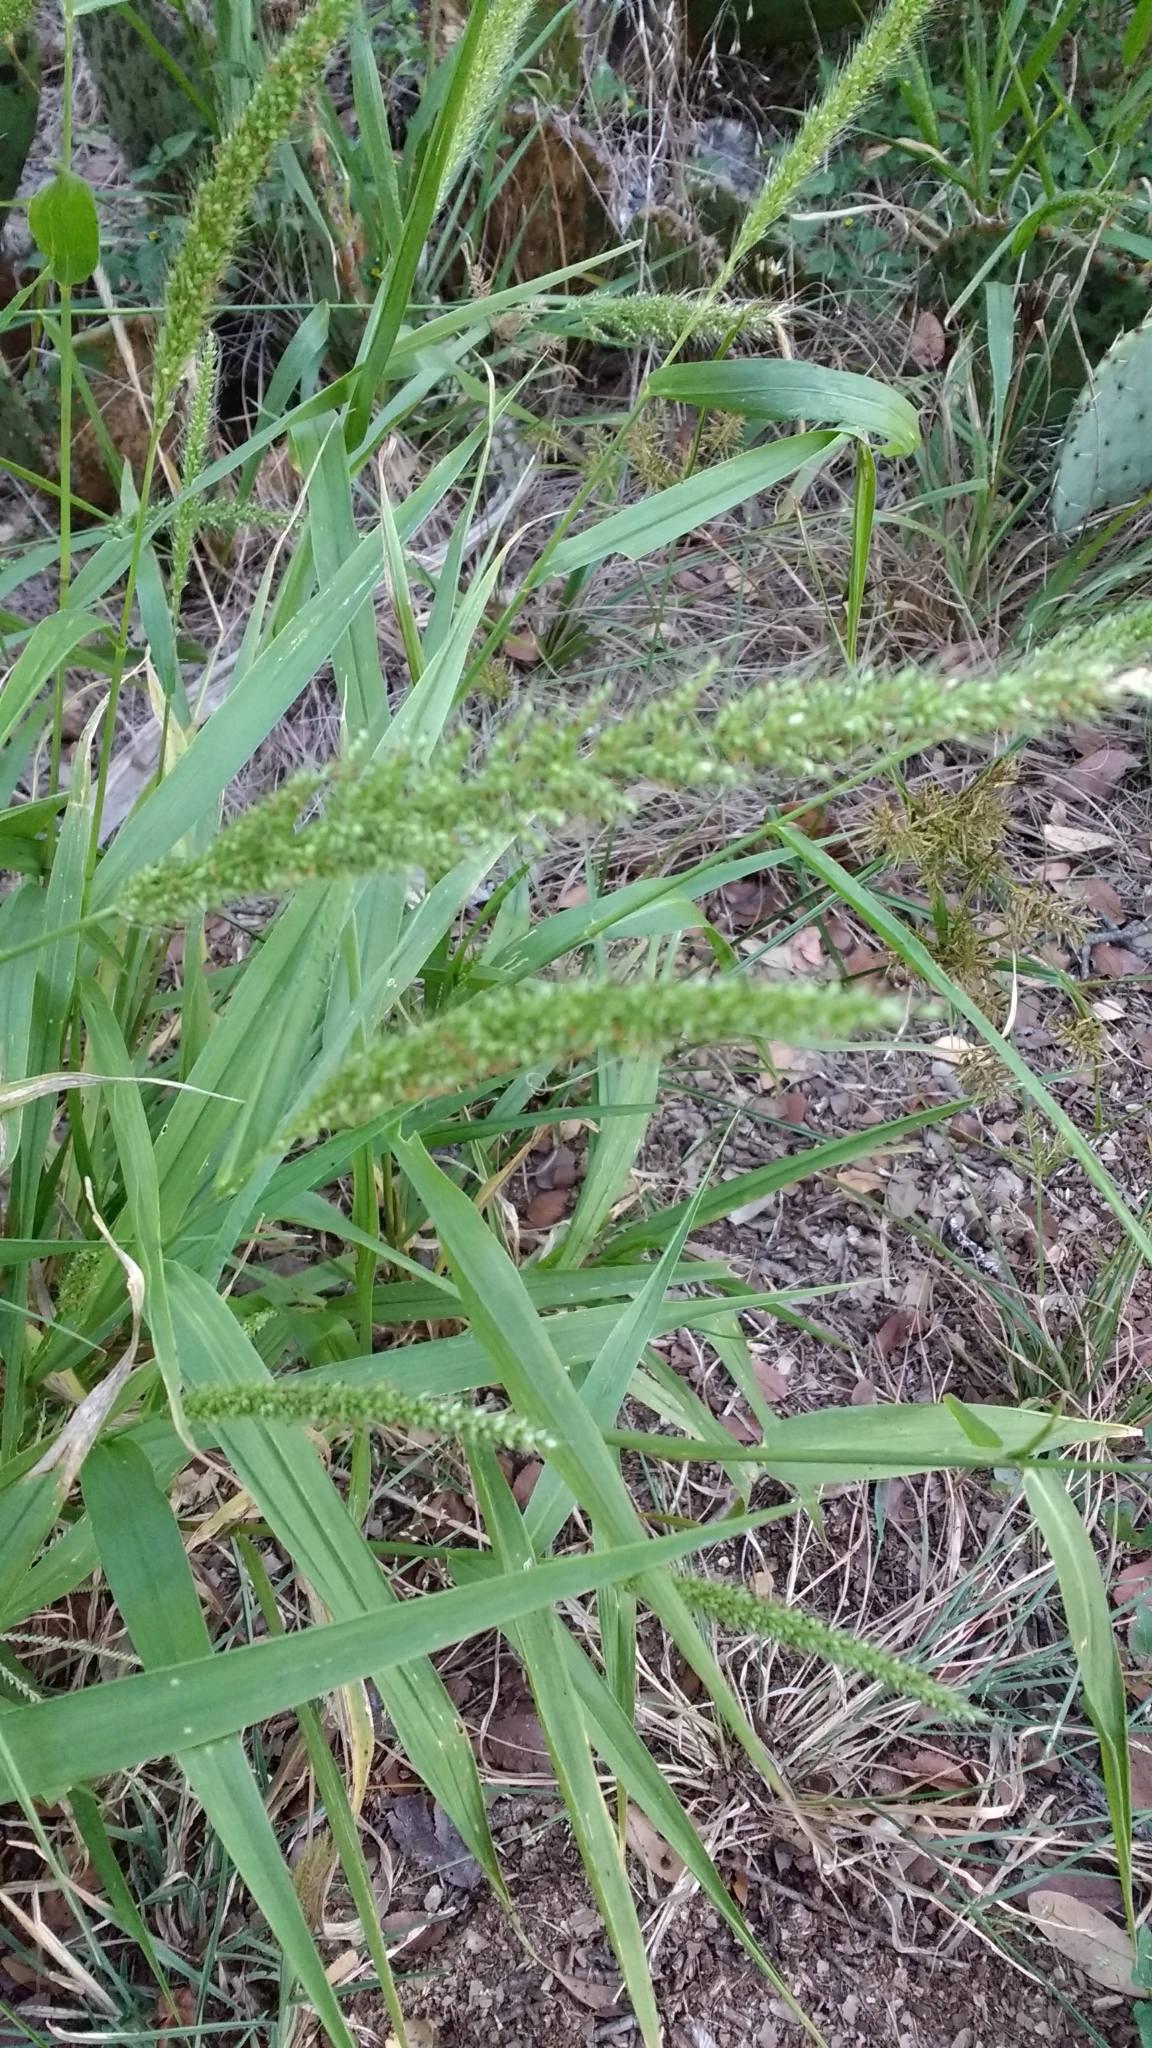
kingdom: Plantae
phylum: Tracheophyta
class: Liliopsida
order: Poales
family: Poaceae
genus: Setaria
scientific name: Setaria scheelei
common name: Southwestern bristle grass
